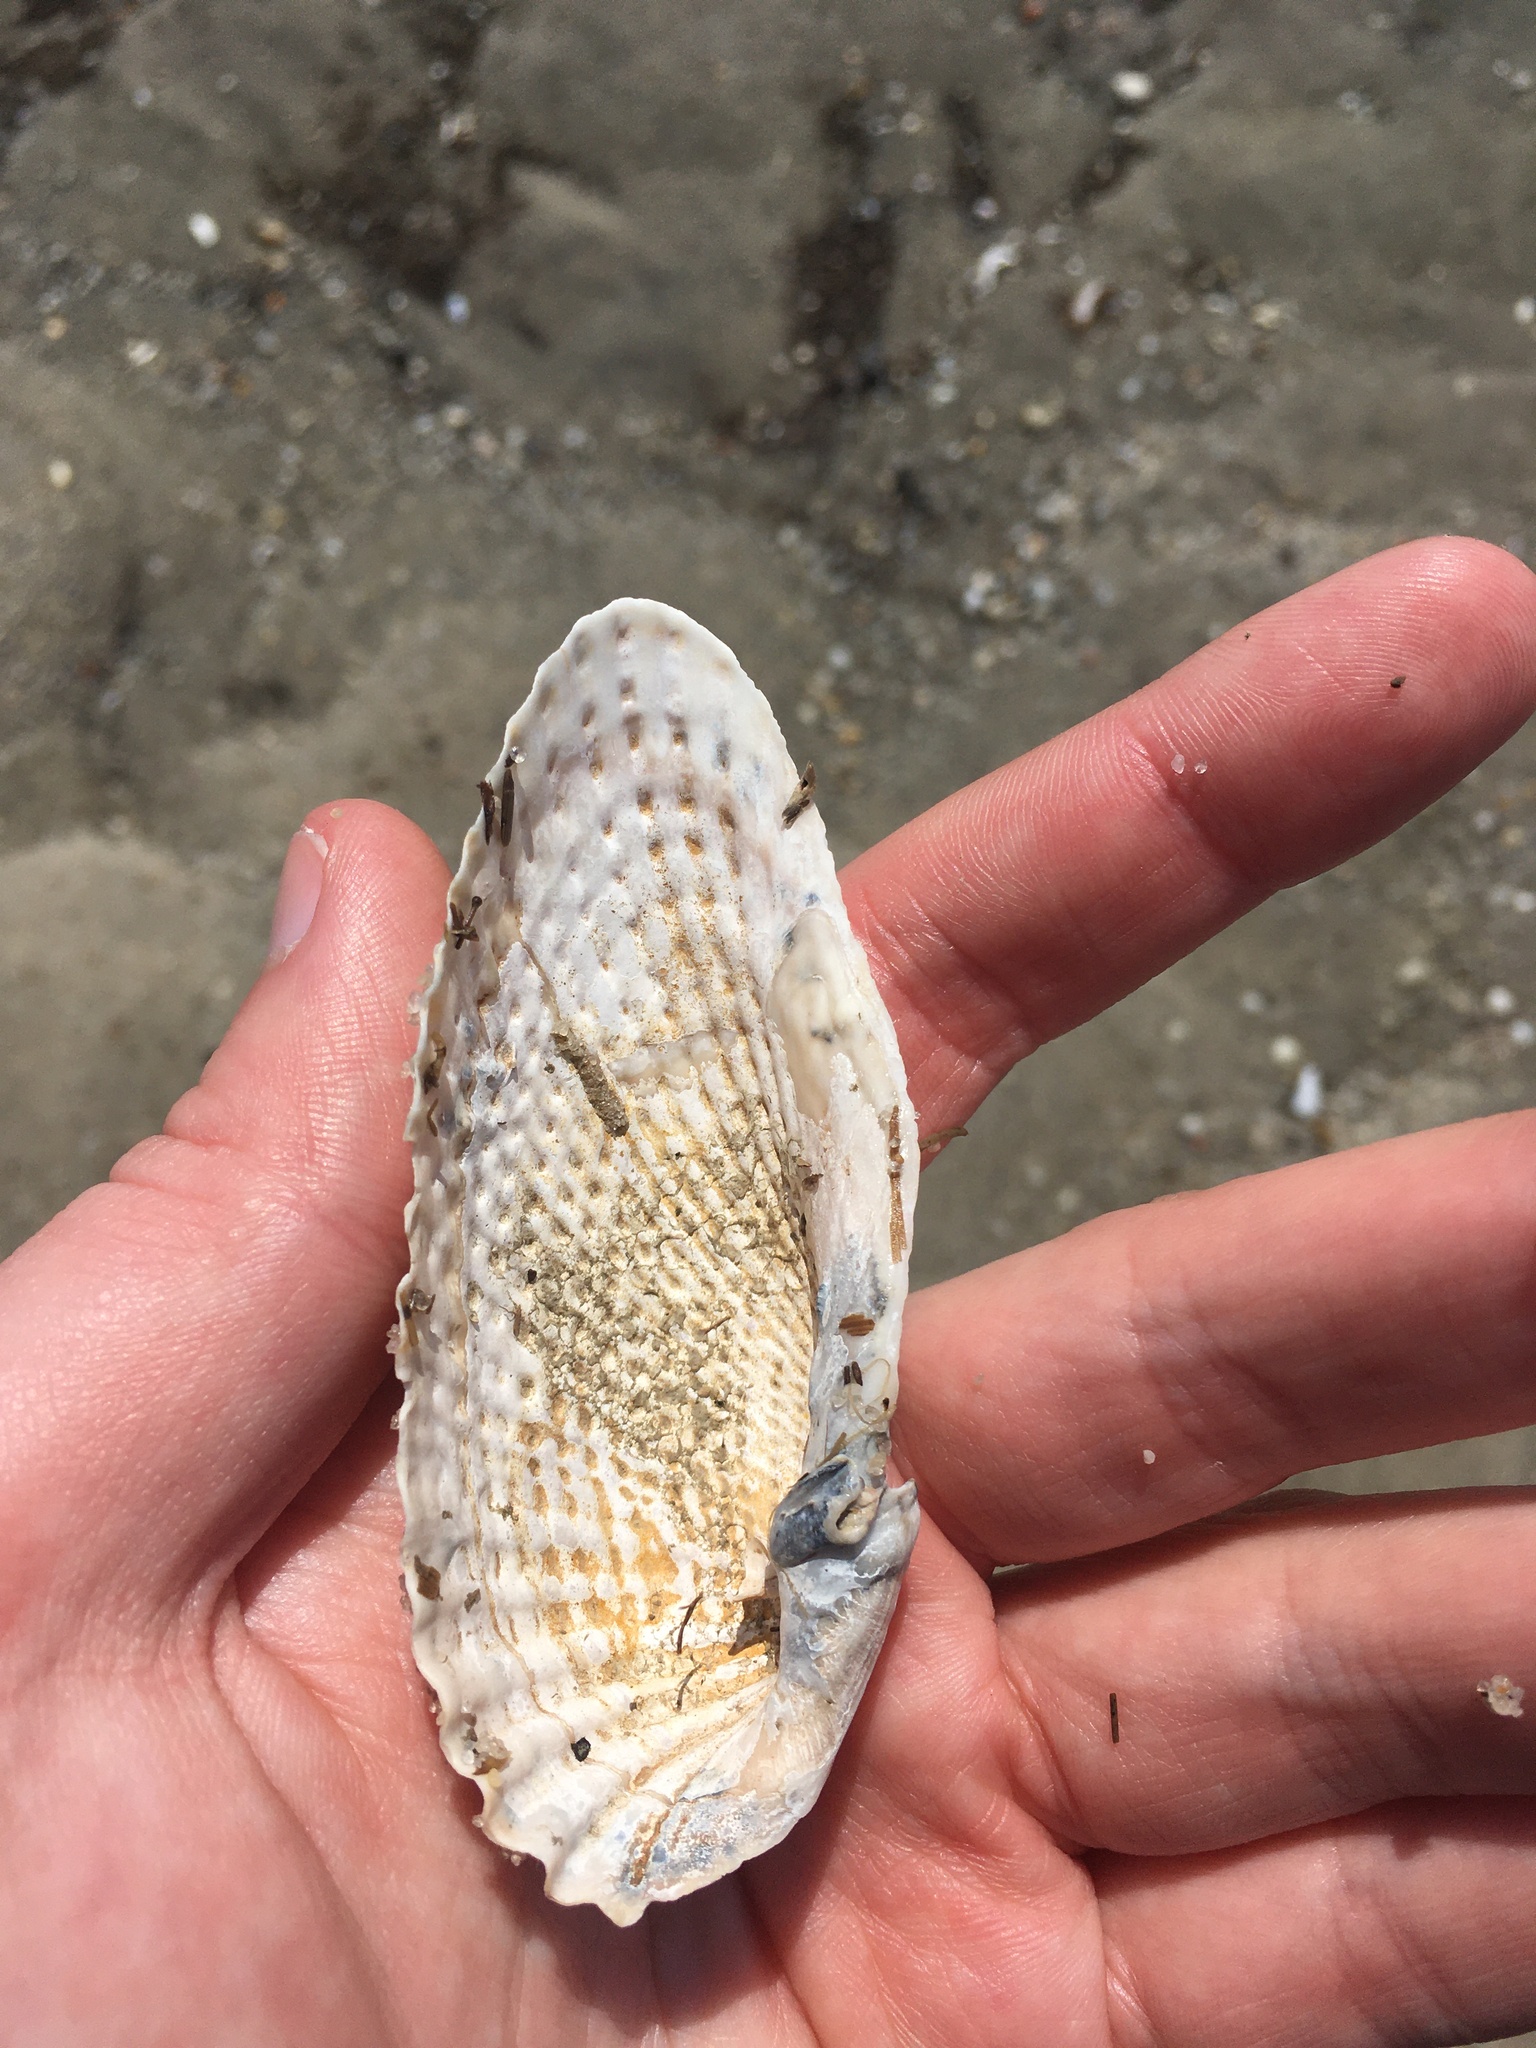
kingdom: Animalia
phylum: Mollusca
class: Bivalvia
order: Myida
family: Pholadidae
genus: Cyrtopleura
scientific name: Cyrtopleura costata
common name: Angel wing
